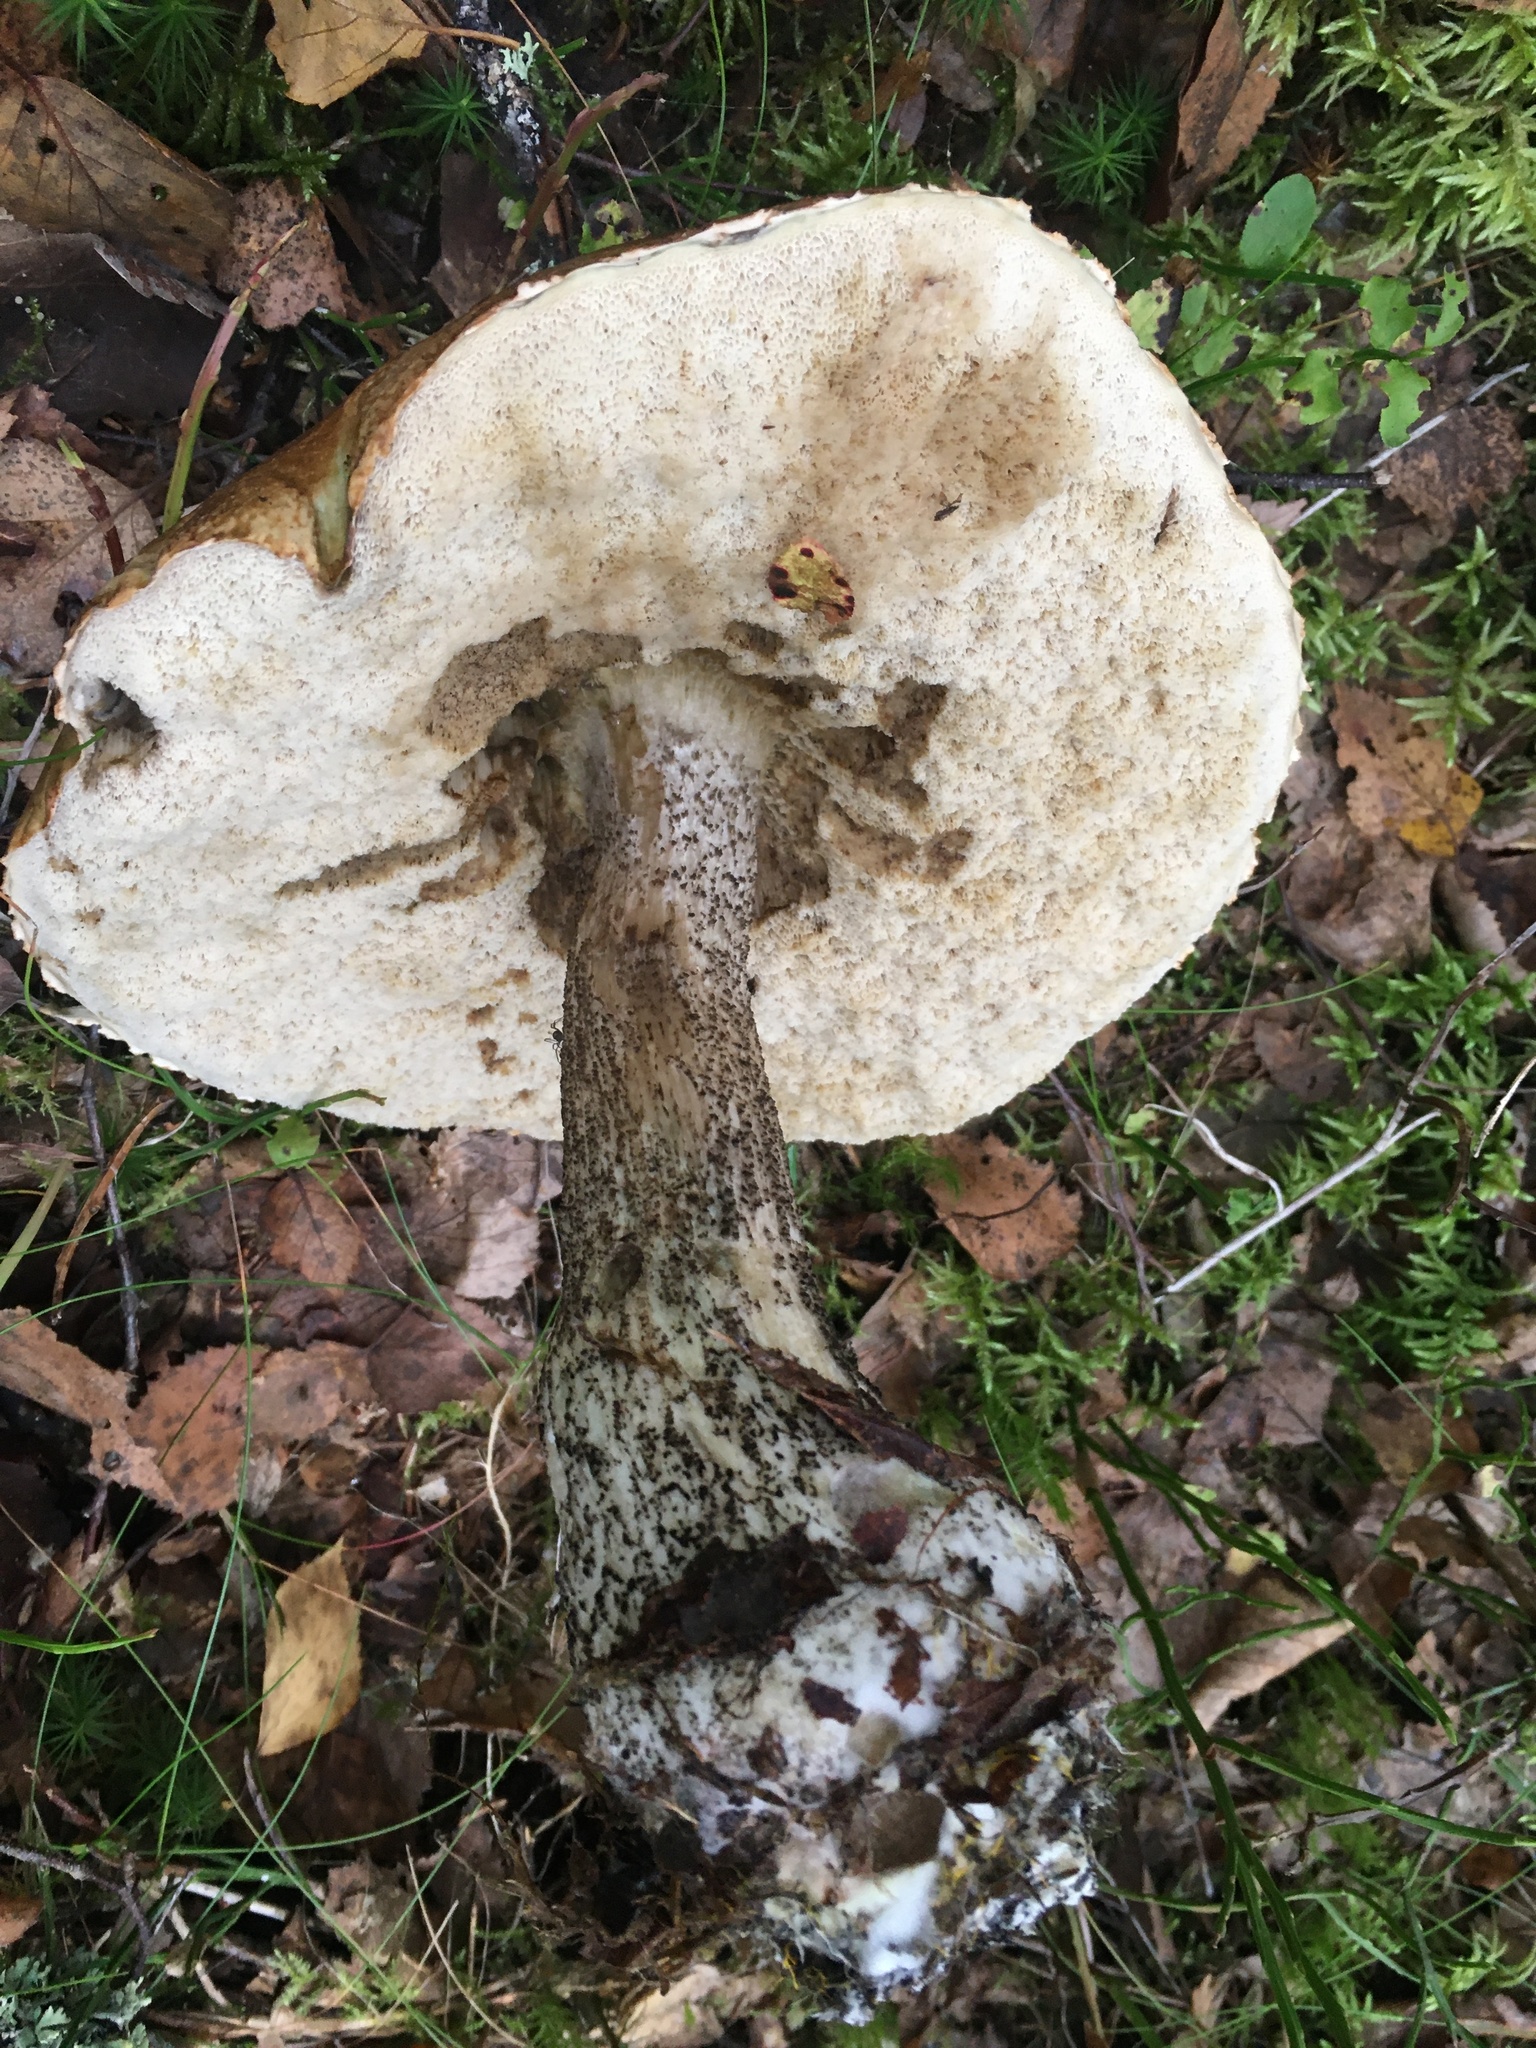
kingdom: Fungi
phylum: Basidiomycota
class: Agaricomycetes
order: Boletales
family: Boletaceae
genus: Leccinum
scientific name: Leccinum scabrum
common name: Blushing bolete
